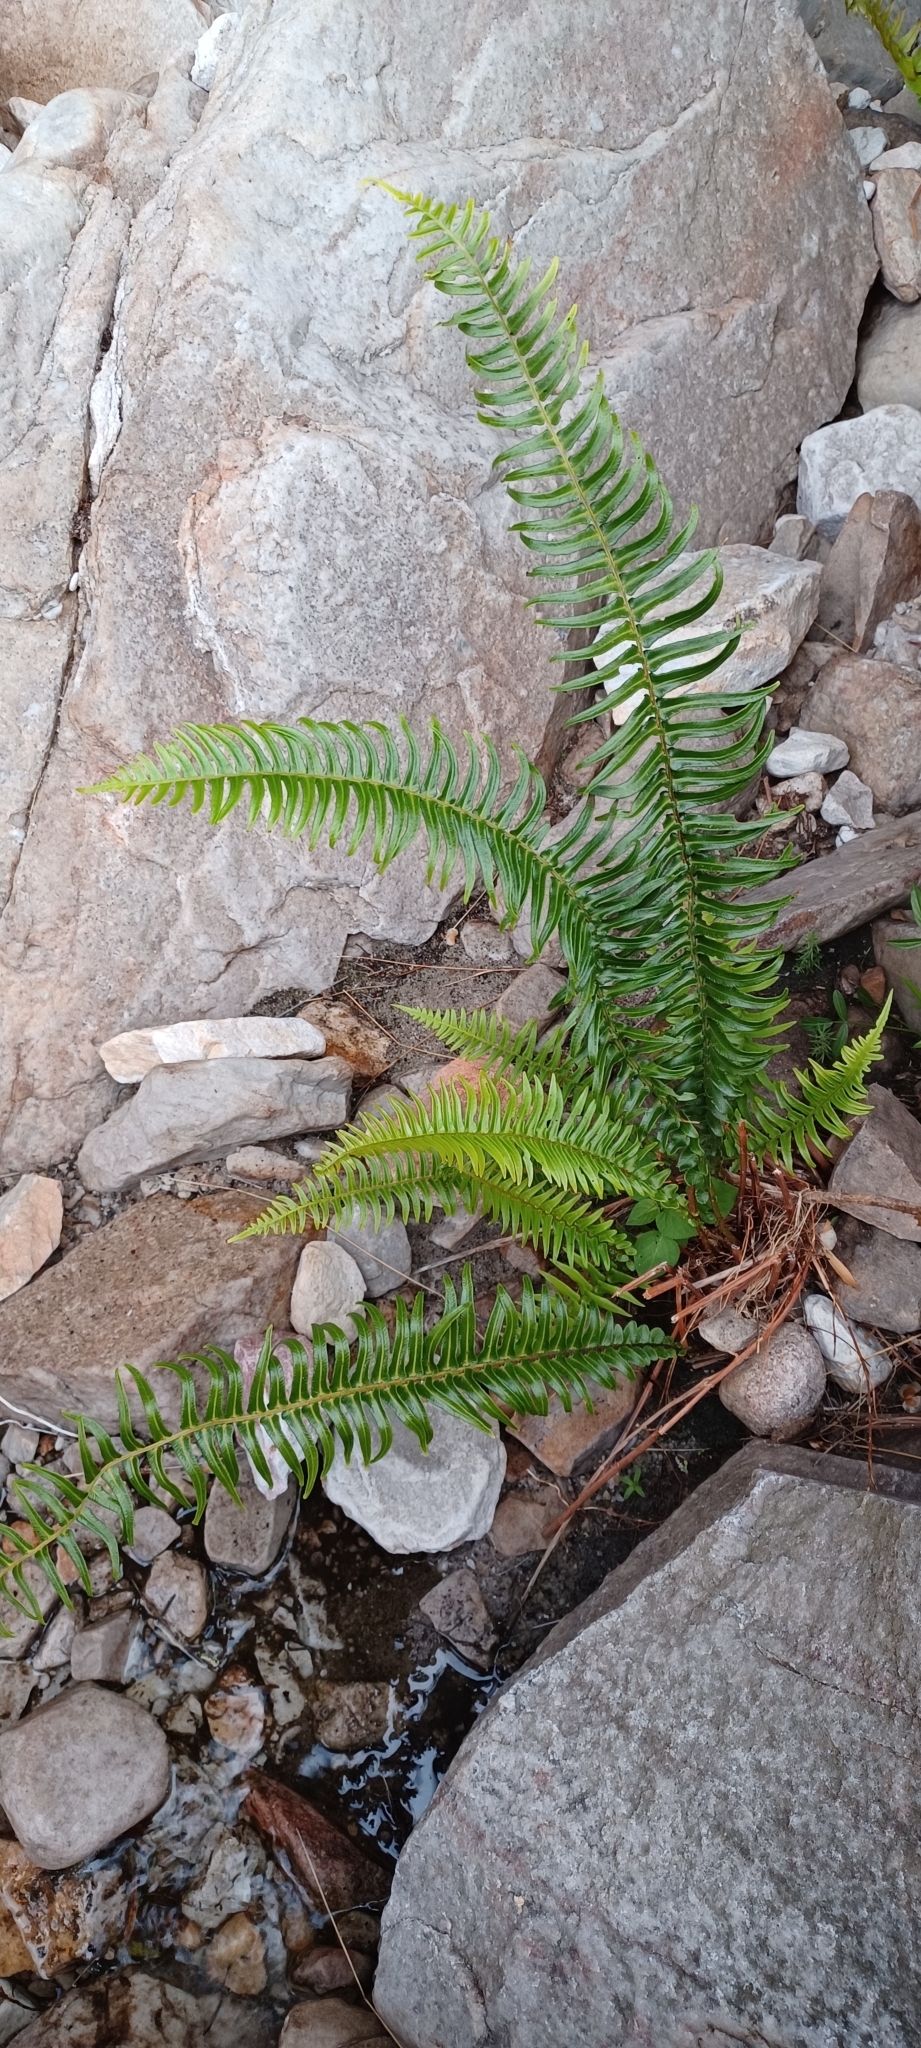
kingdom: Plantae
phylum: Tracheophyta
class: Polypodiopsida
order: Polypodiales
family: Blechnaceae
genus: Blechnum
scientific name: Blechnum punctulatum
